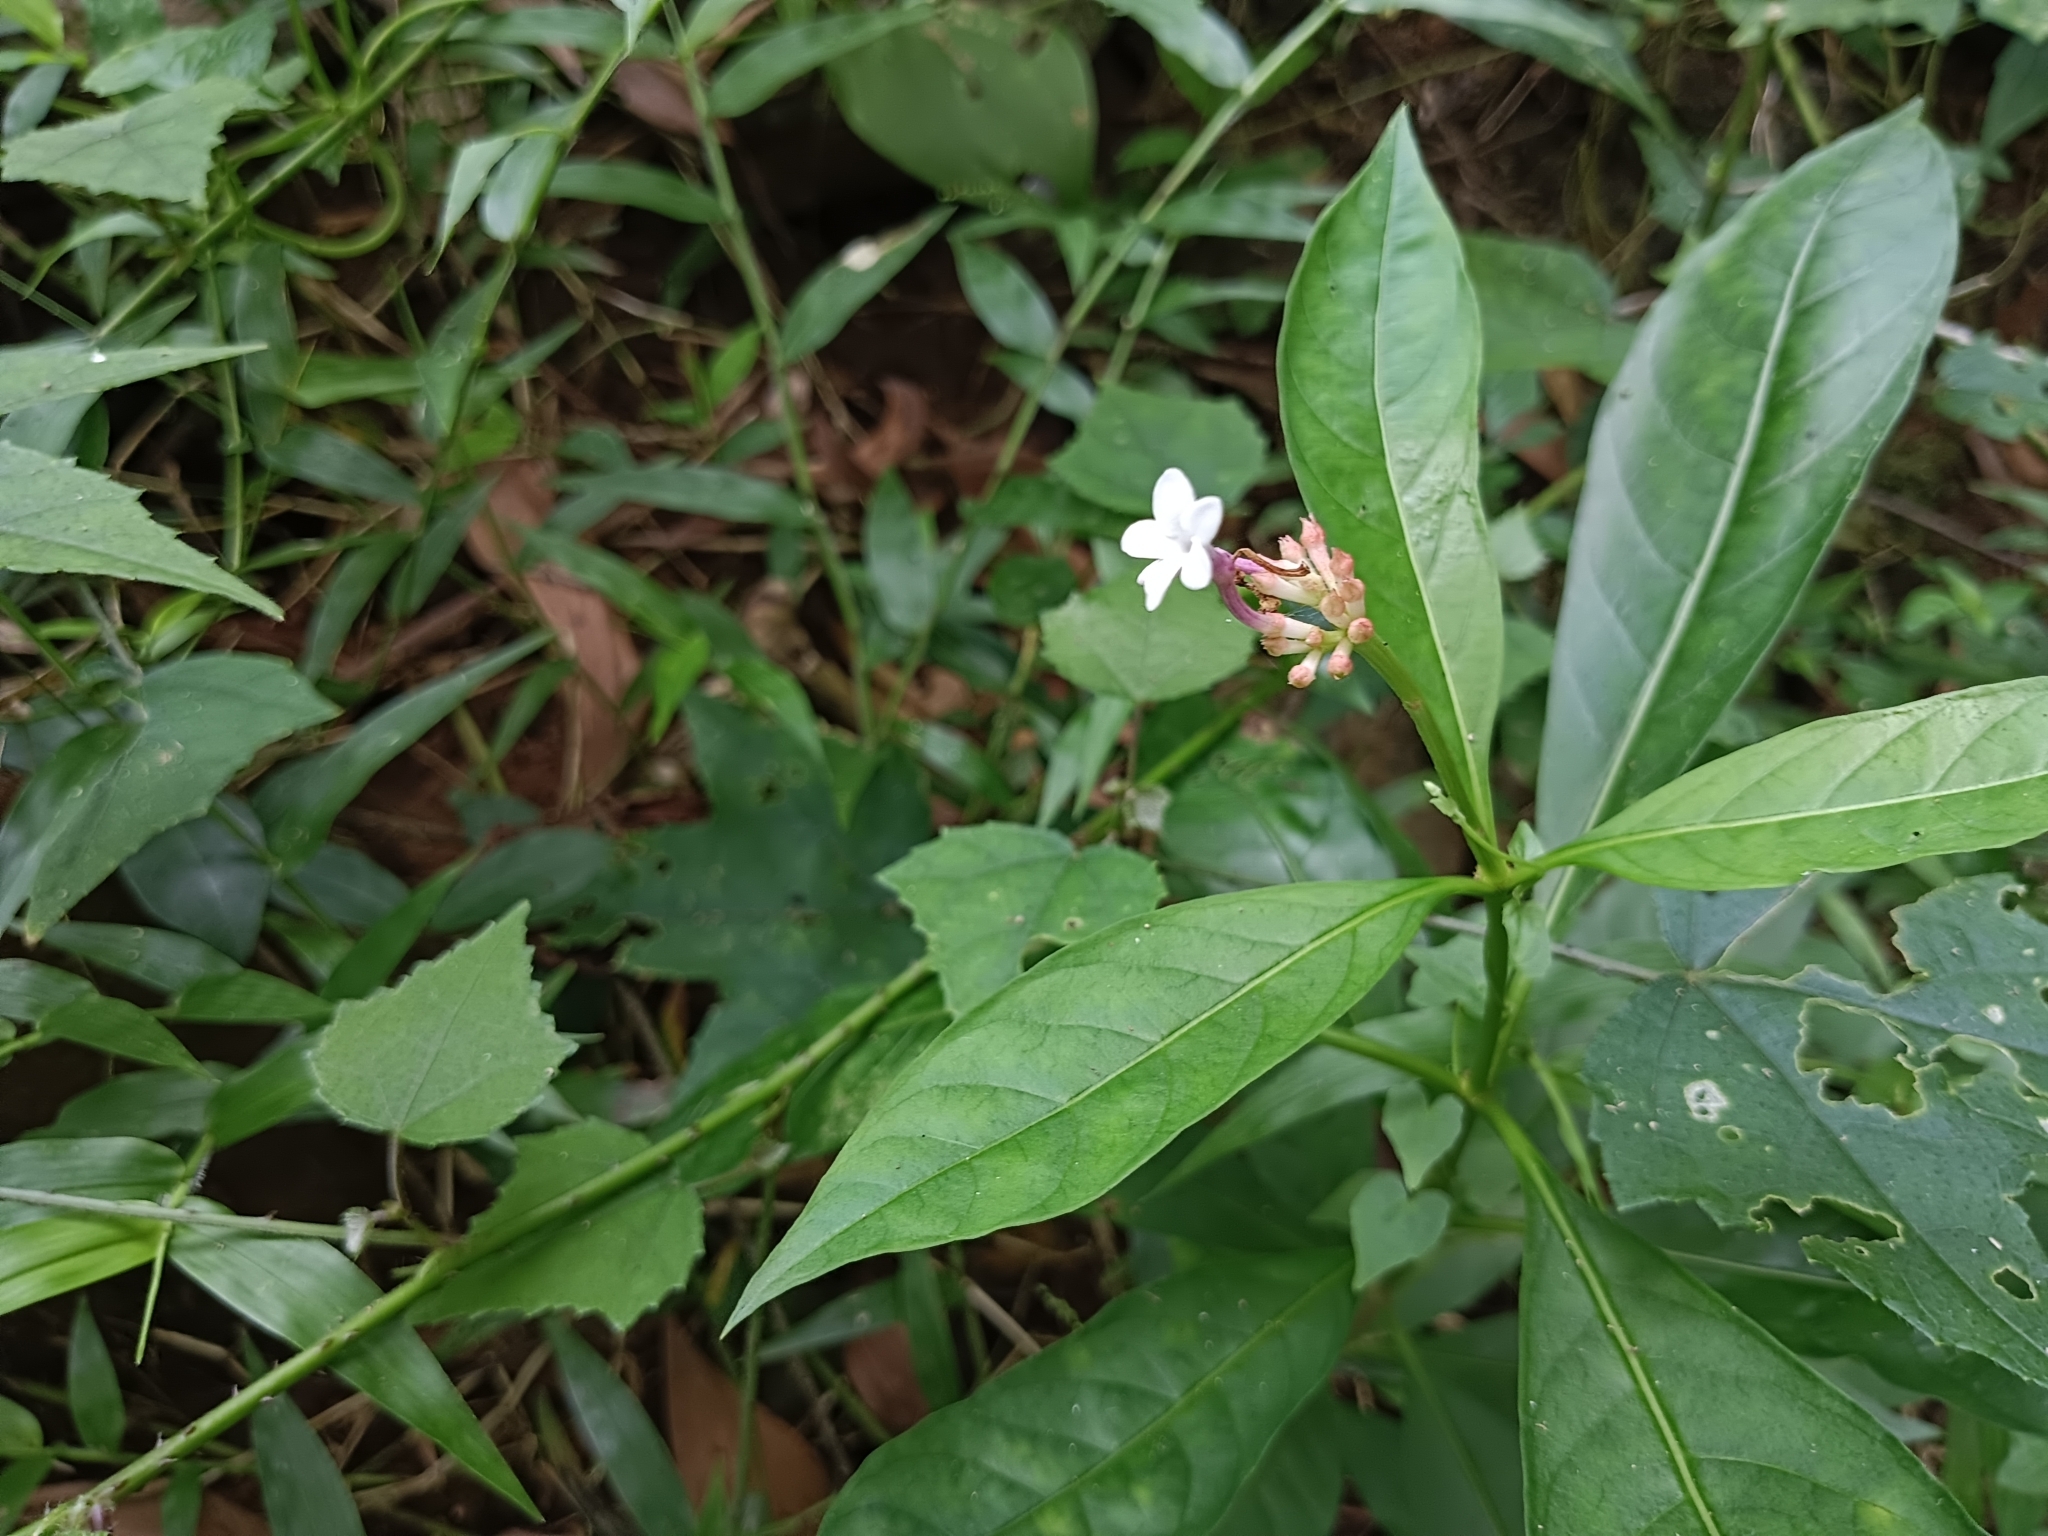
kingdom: Plantae
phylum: Tracheophyta
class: Magnoliopsida
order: Gentianales
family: Apocynaceae
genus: Rauvolfia
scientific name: Rauvolfia serpentina
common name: Ajmaline
